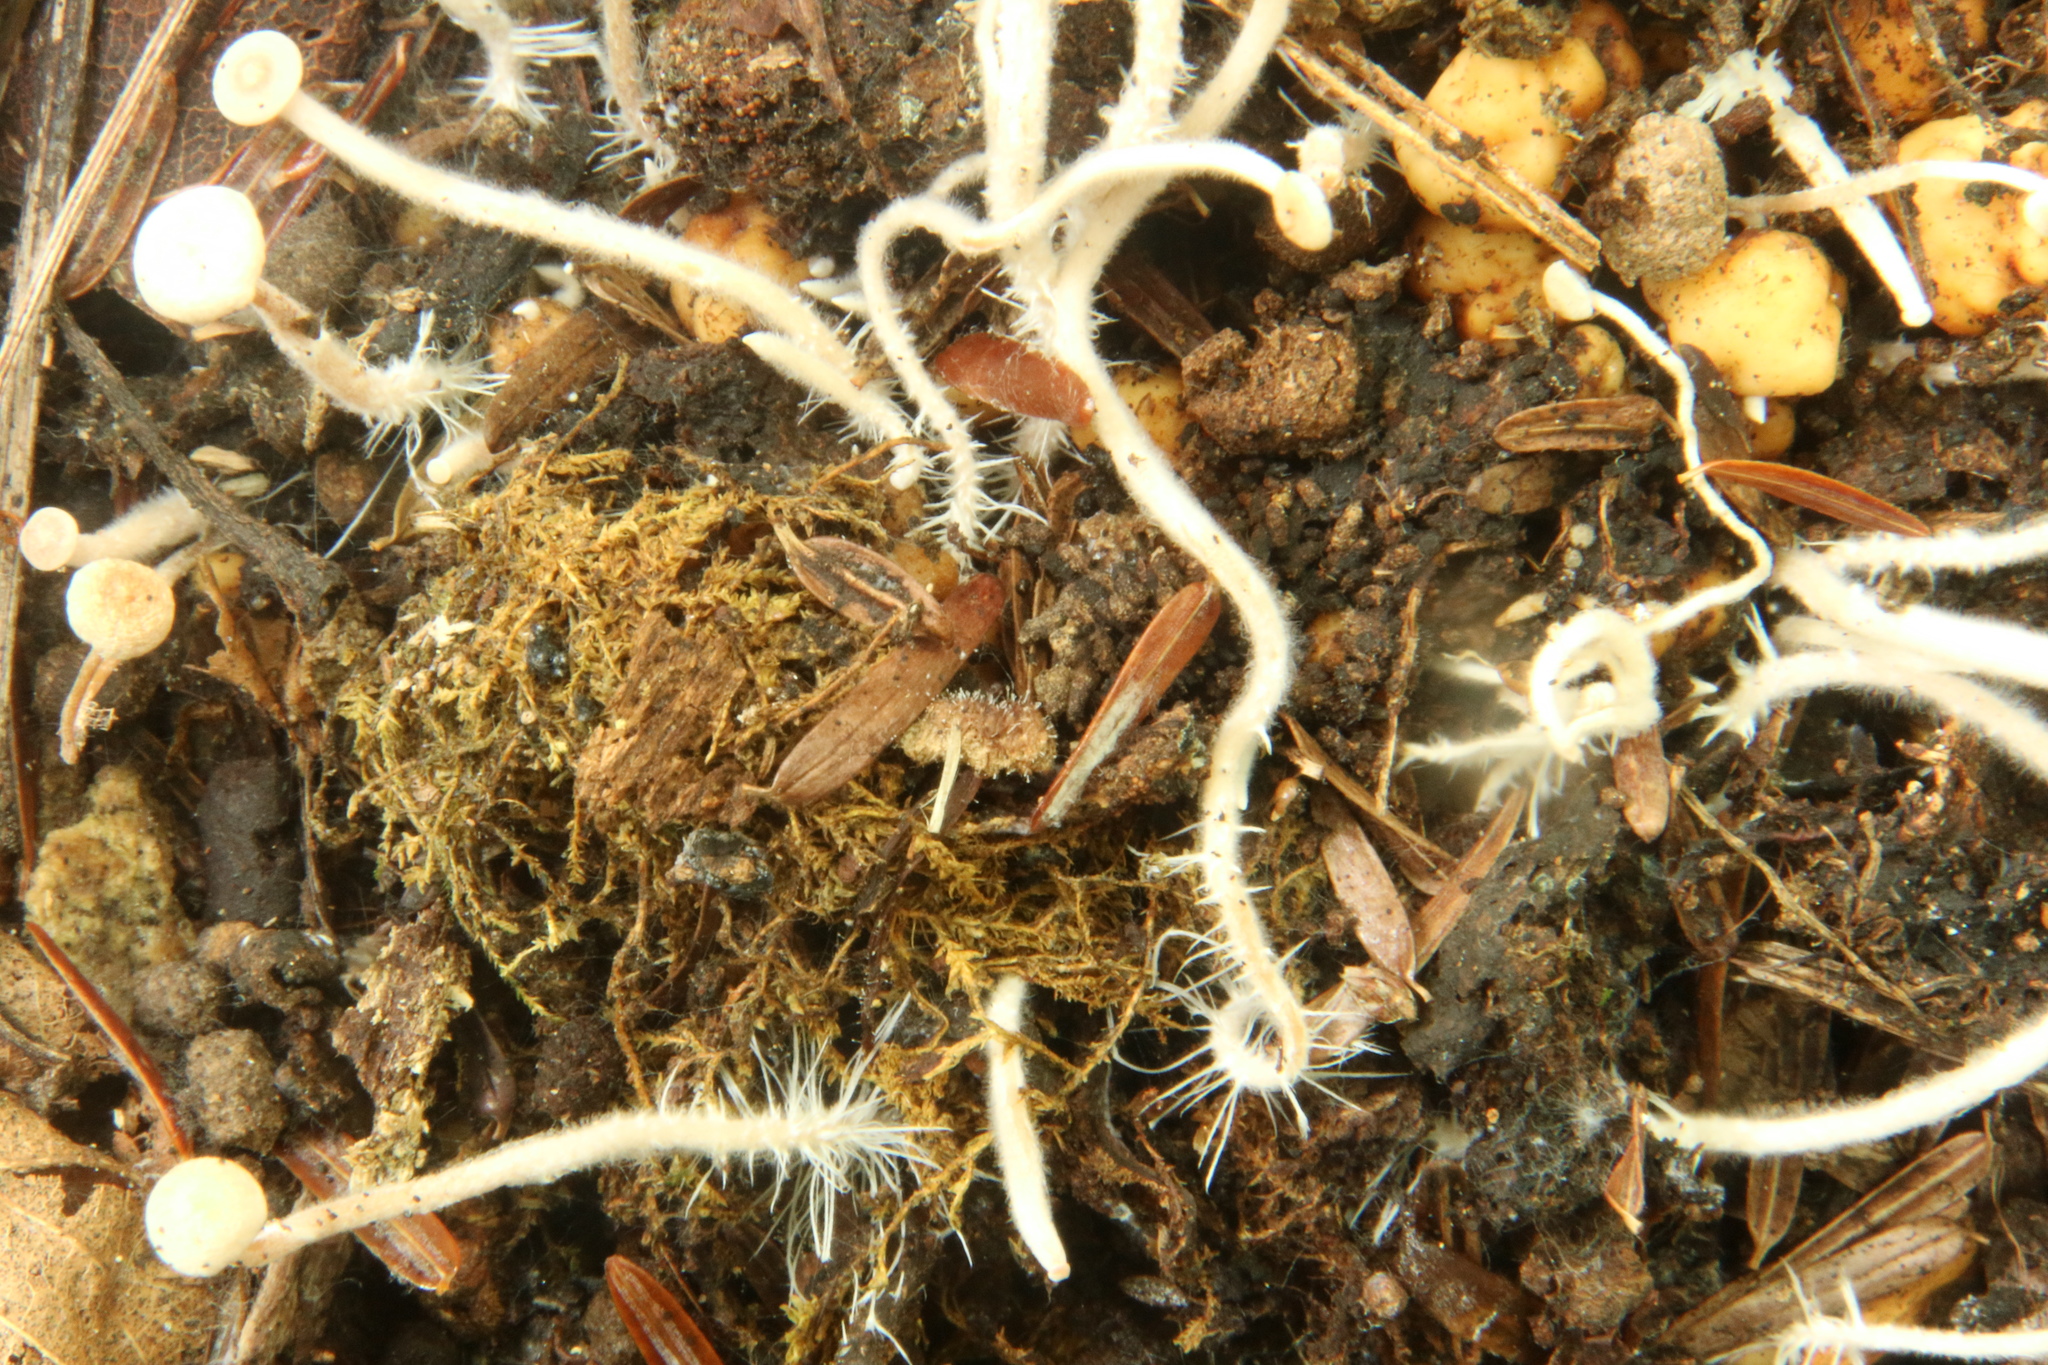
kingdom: Fungi
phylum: Basidiomycota
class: Agaricomycetes
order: Agaricales
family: Tricholomataceae
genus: Collybia
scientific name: Collybia cookei
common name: Splitpea shanklet
